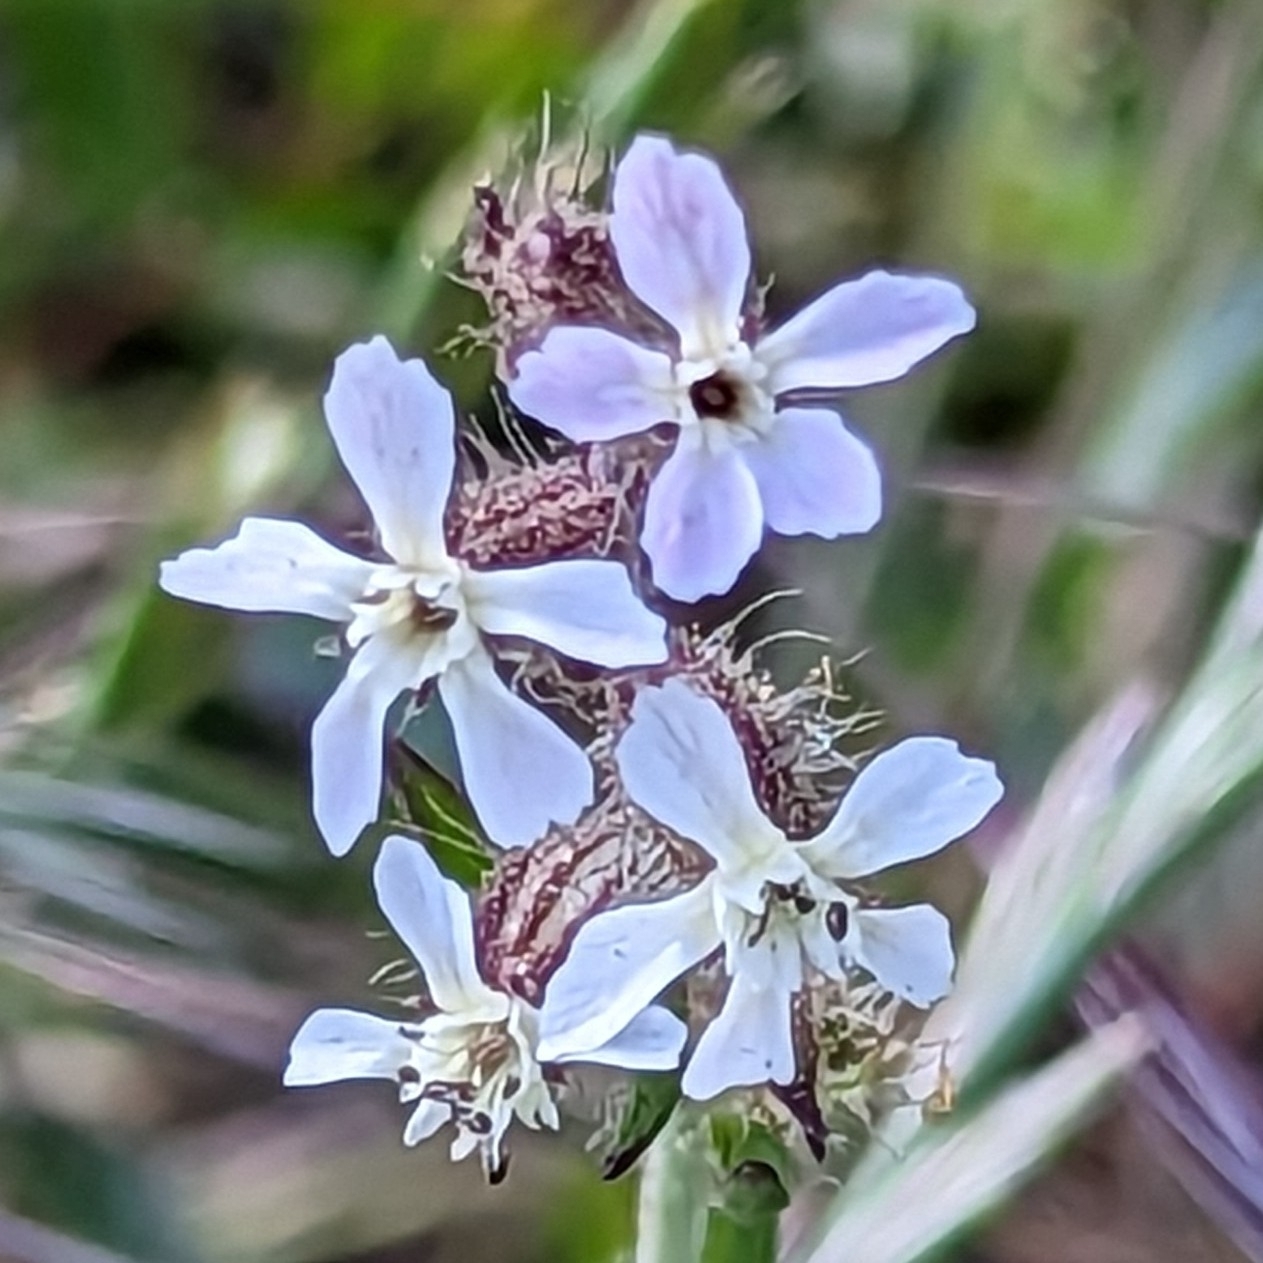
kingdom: Plantae
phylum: Tracheophyta
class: Magnoliopsida
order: Caryophyllales
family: Caryophyllaceae
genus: Silene
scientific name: Silene gallica
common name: Small-flowered catchfly
